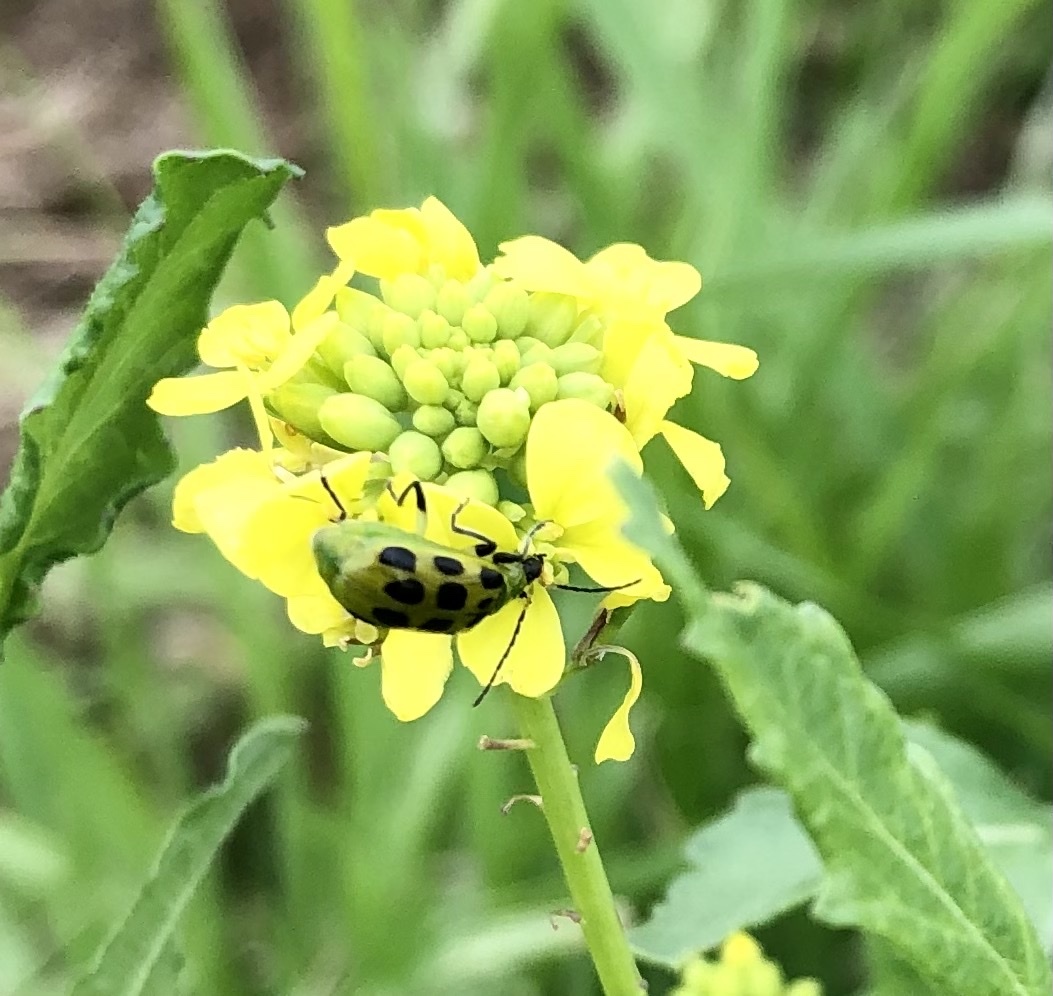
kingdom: Animalia
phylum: Arthropoda
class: Insecta
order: Coleoptera
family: Chrysomelidae
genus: Diabrotica
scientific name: Diabrotica undecimpunctata
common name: Spotted cucumber beetle
